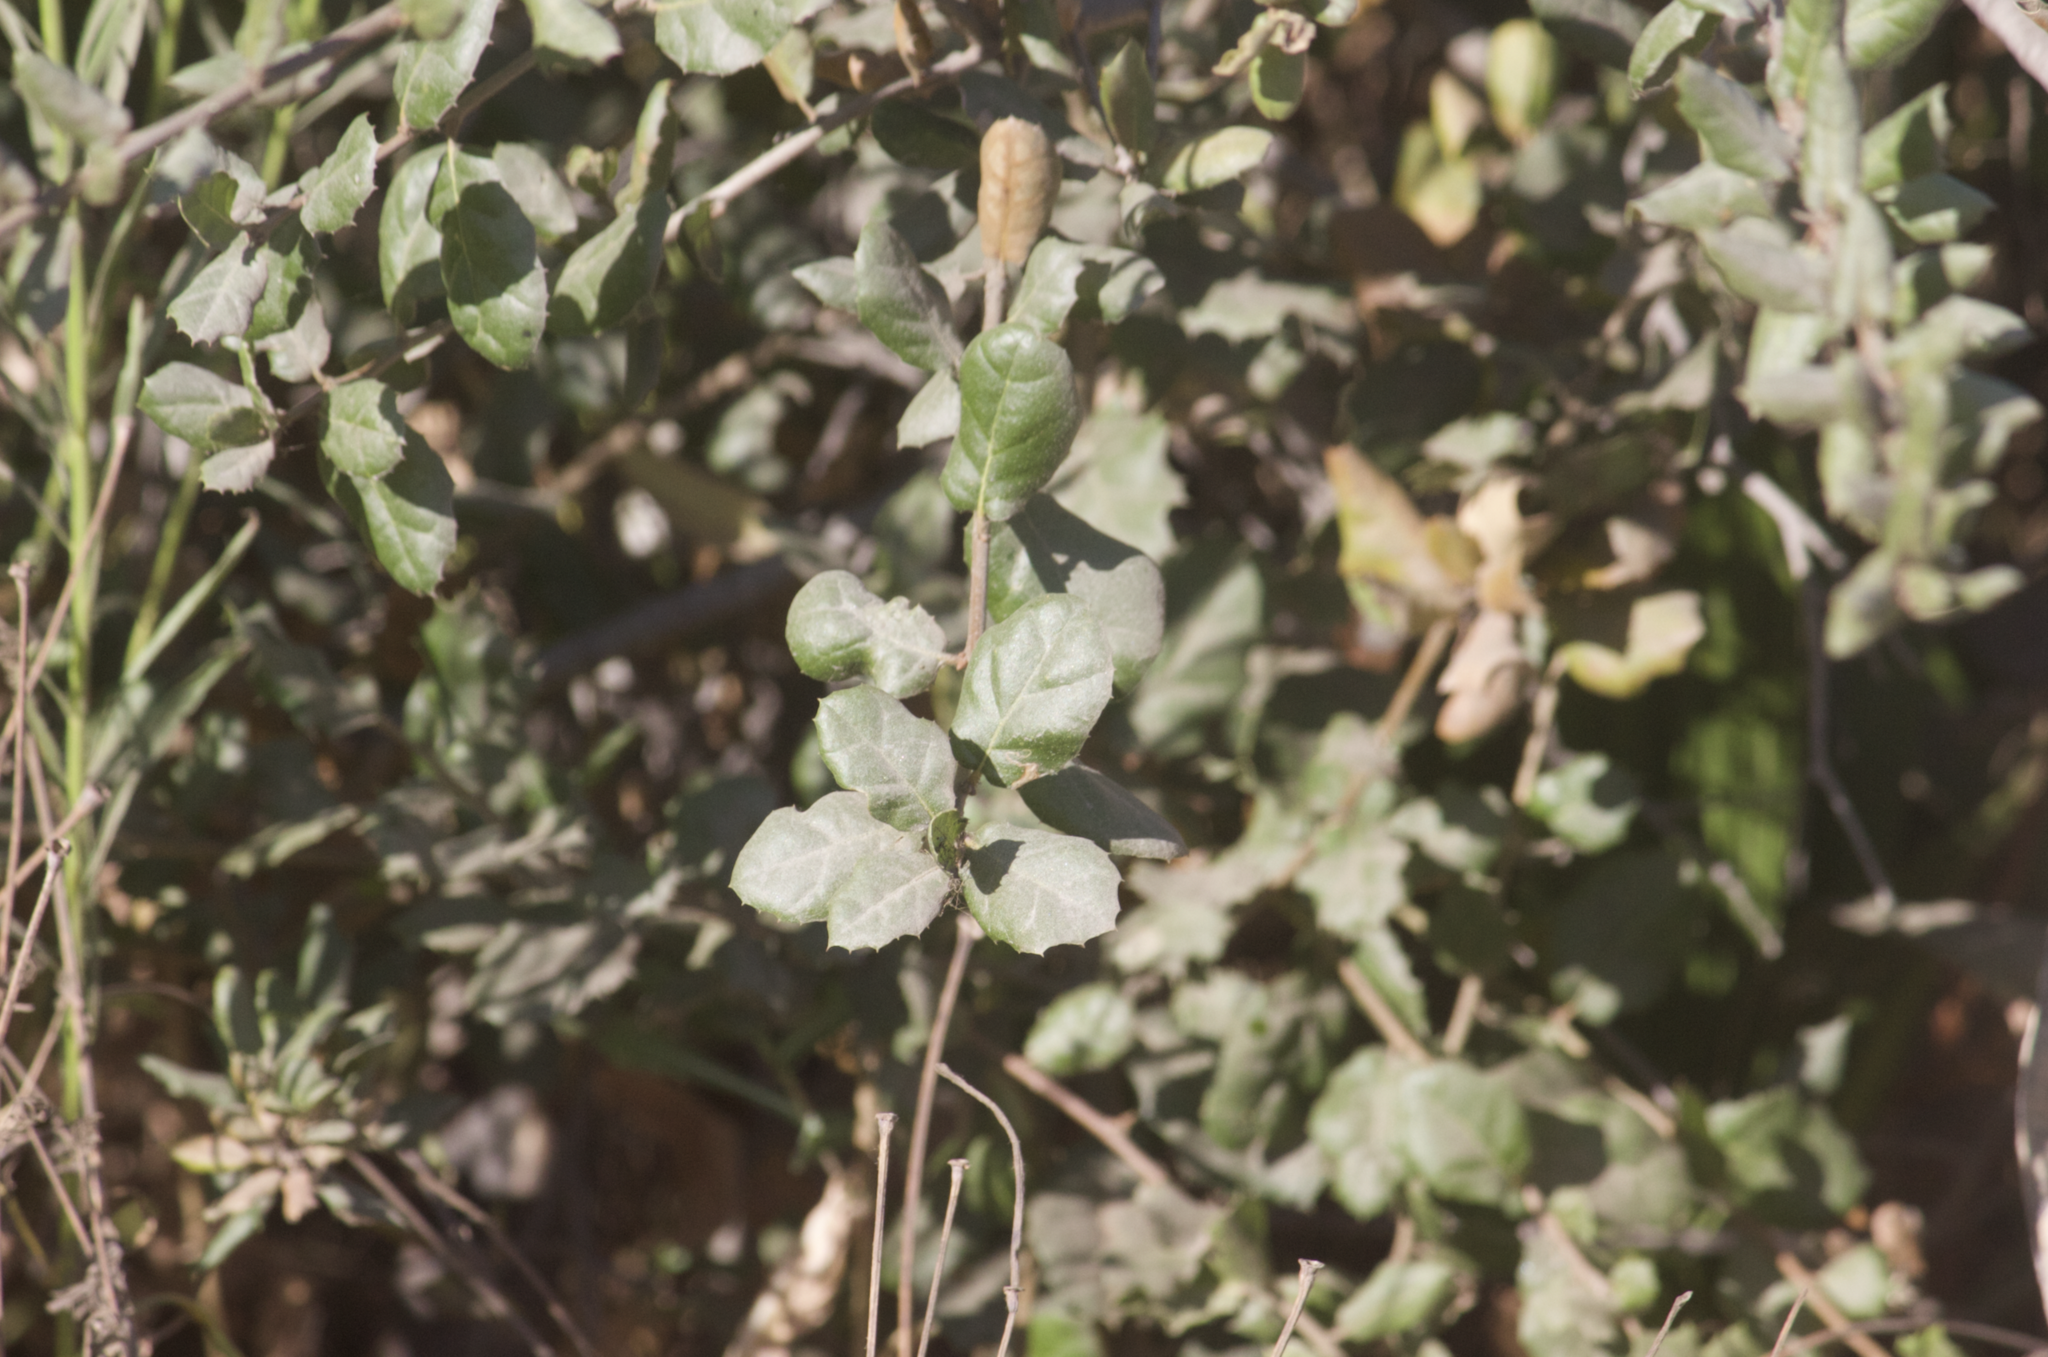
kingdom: Plantae
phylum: Tracheophyta
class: Magnoliopsida
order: Fagales
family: Fagaceae
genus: Quercus
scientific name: Quercus agrifolia
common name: California live oak
